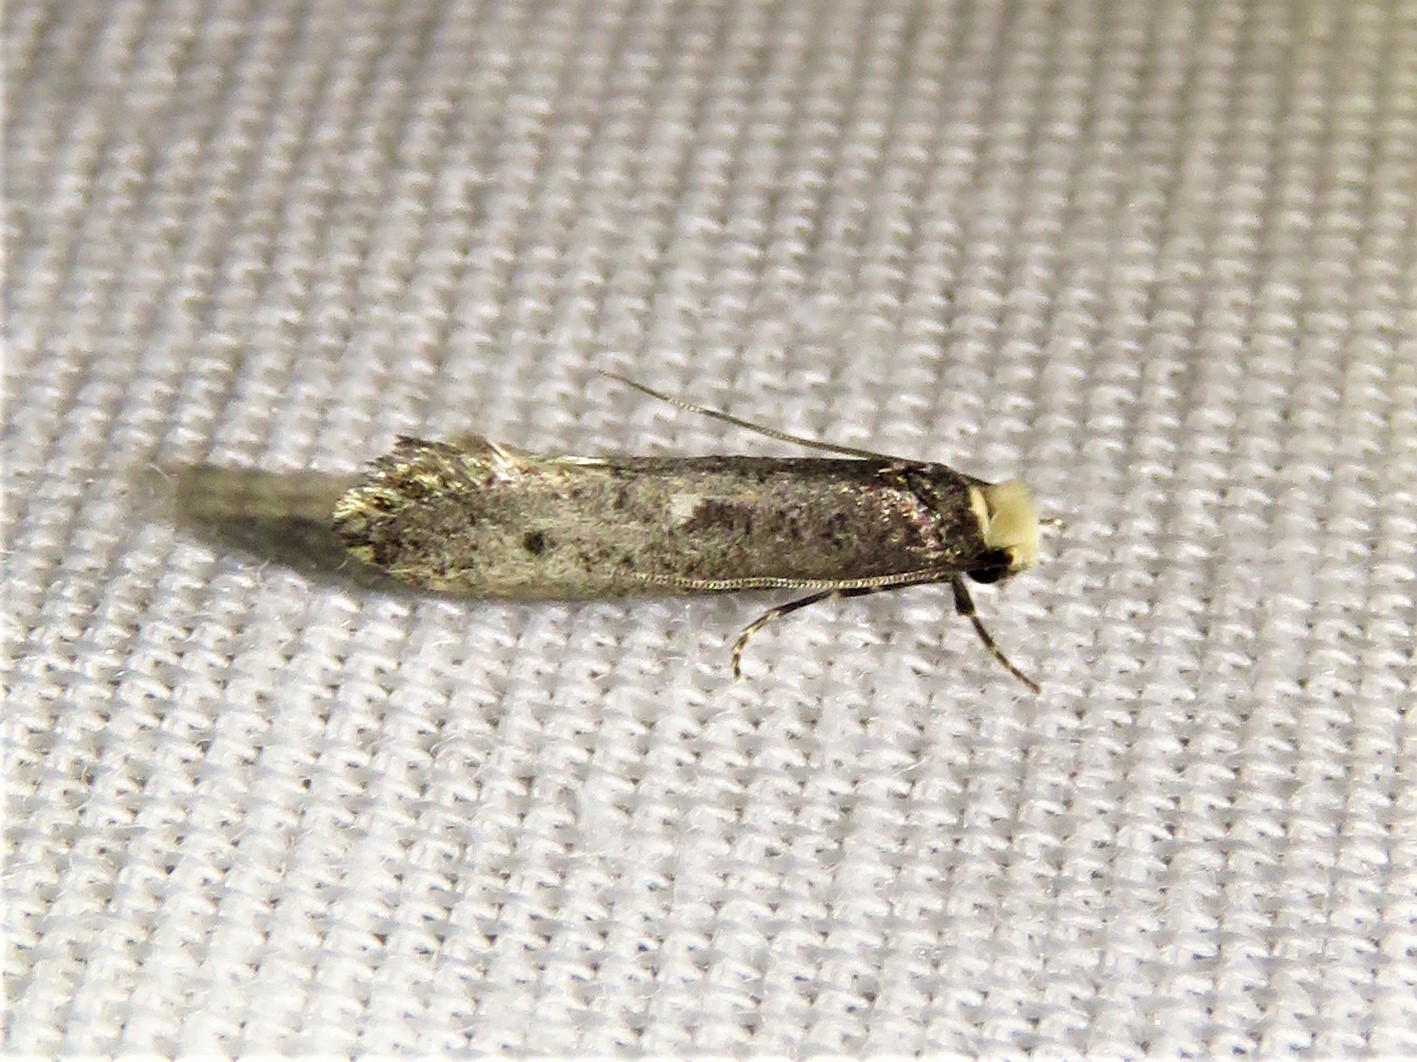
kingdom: Animalia
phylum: Arthropoda
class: Insecta
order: Lepidoptera
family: Tineidae
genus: Tinea
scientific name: Tinea occidentella
